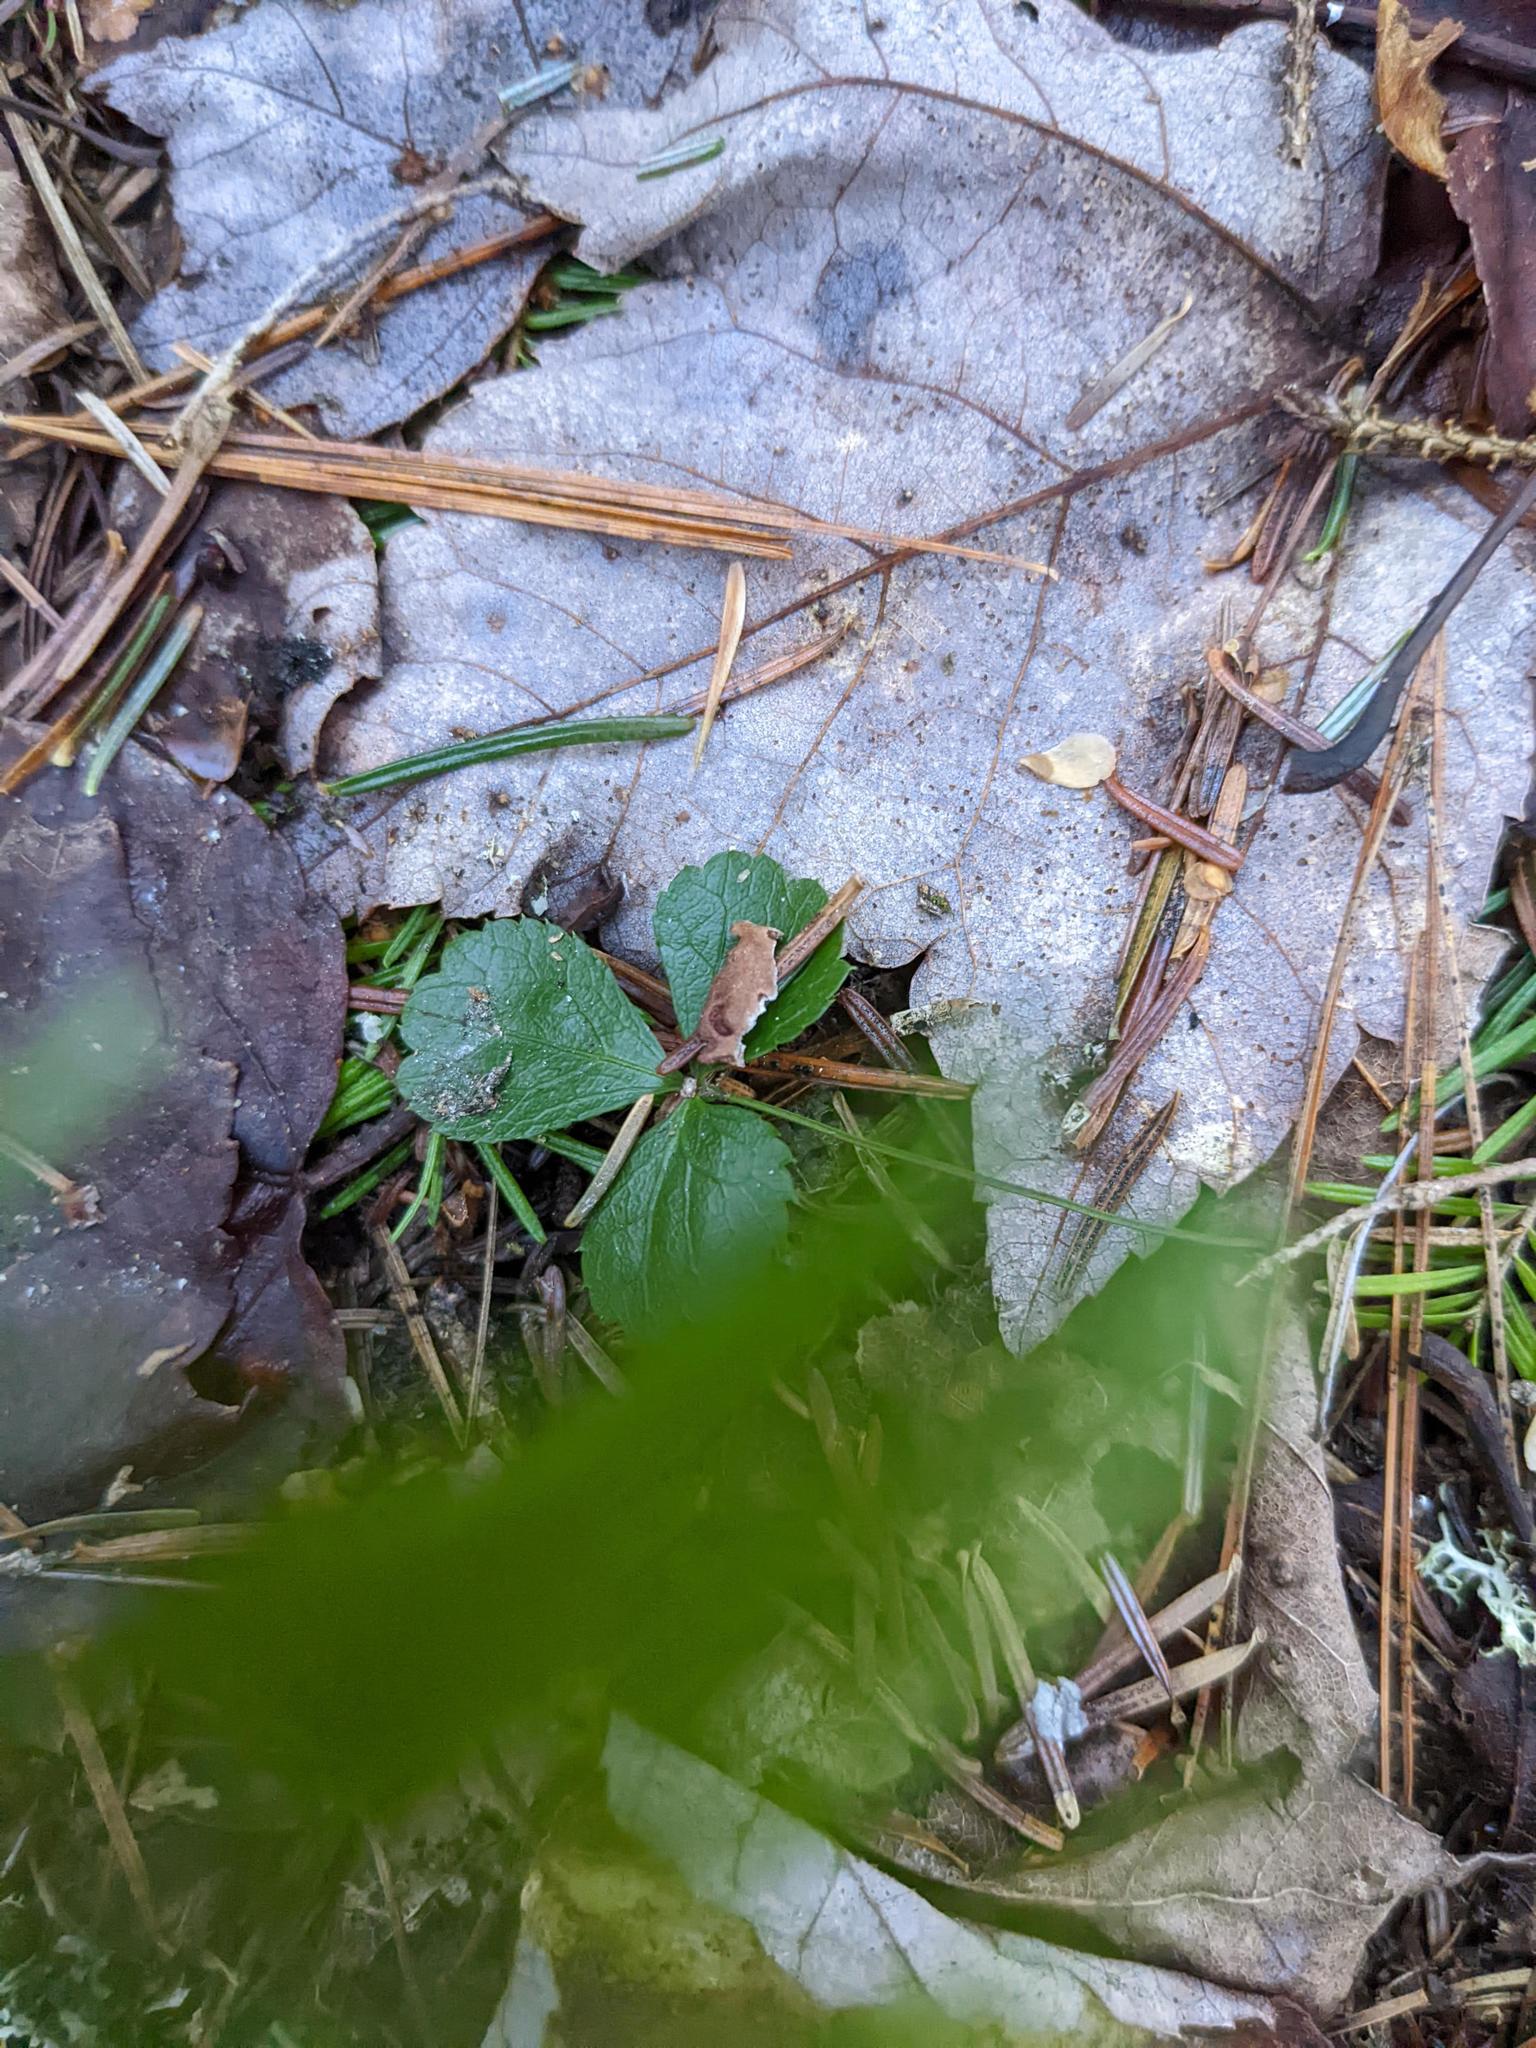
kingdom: Plantae
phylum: Tracheophyta
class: Magnoliopsida
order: Ranunculales
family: Ranunculaceae
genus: Coptis
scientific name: Coptis trifolia
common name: Canker-root
